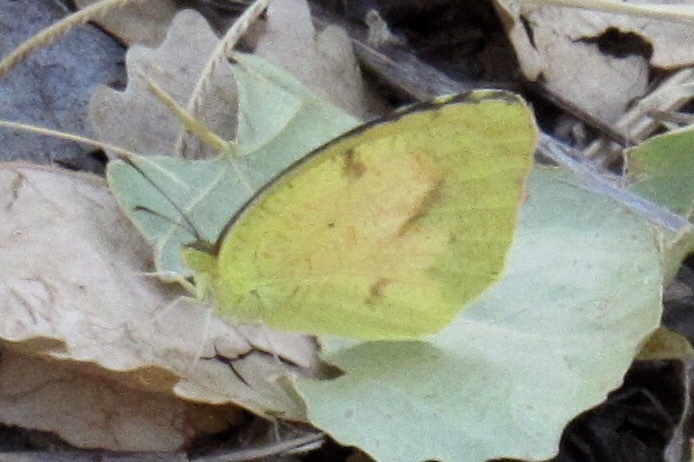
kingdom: Animalia
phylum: Arthropoda
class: Insecta
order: Lepidoptera
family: Pieridae
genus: Abaeis
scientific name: Abaeis nicippe
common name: Sleepy orange
